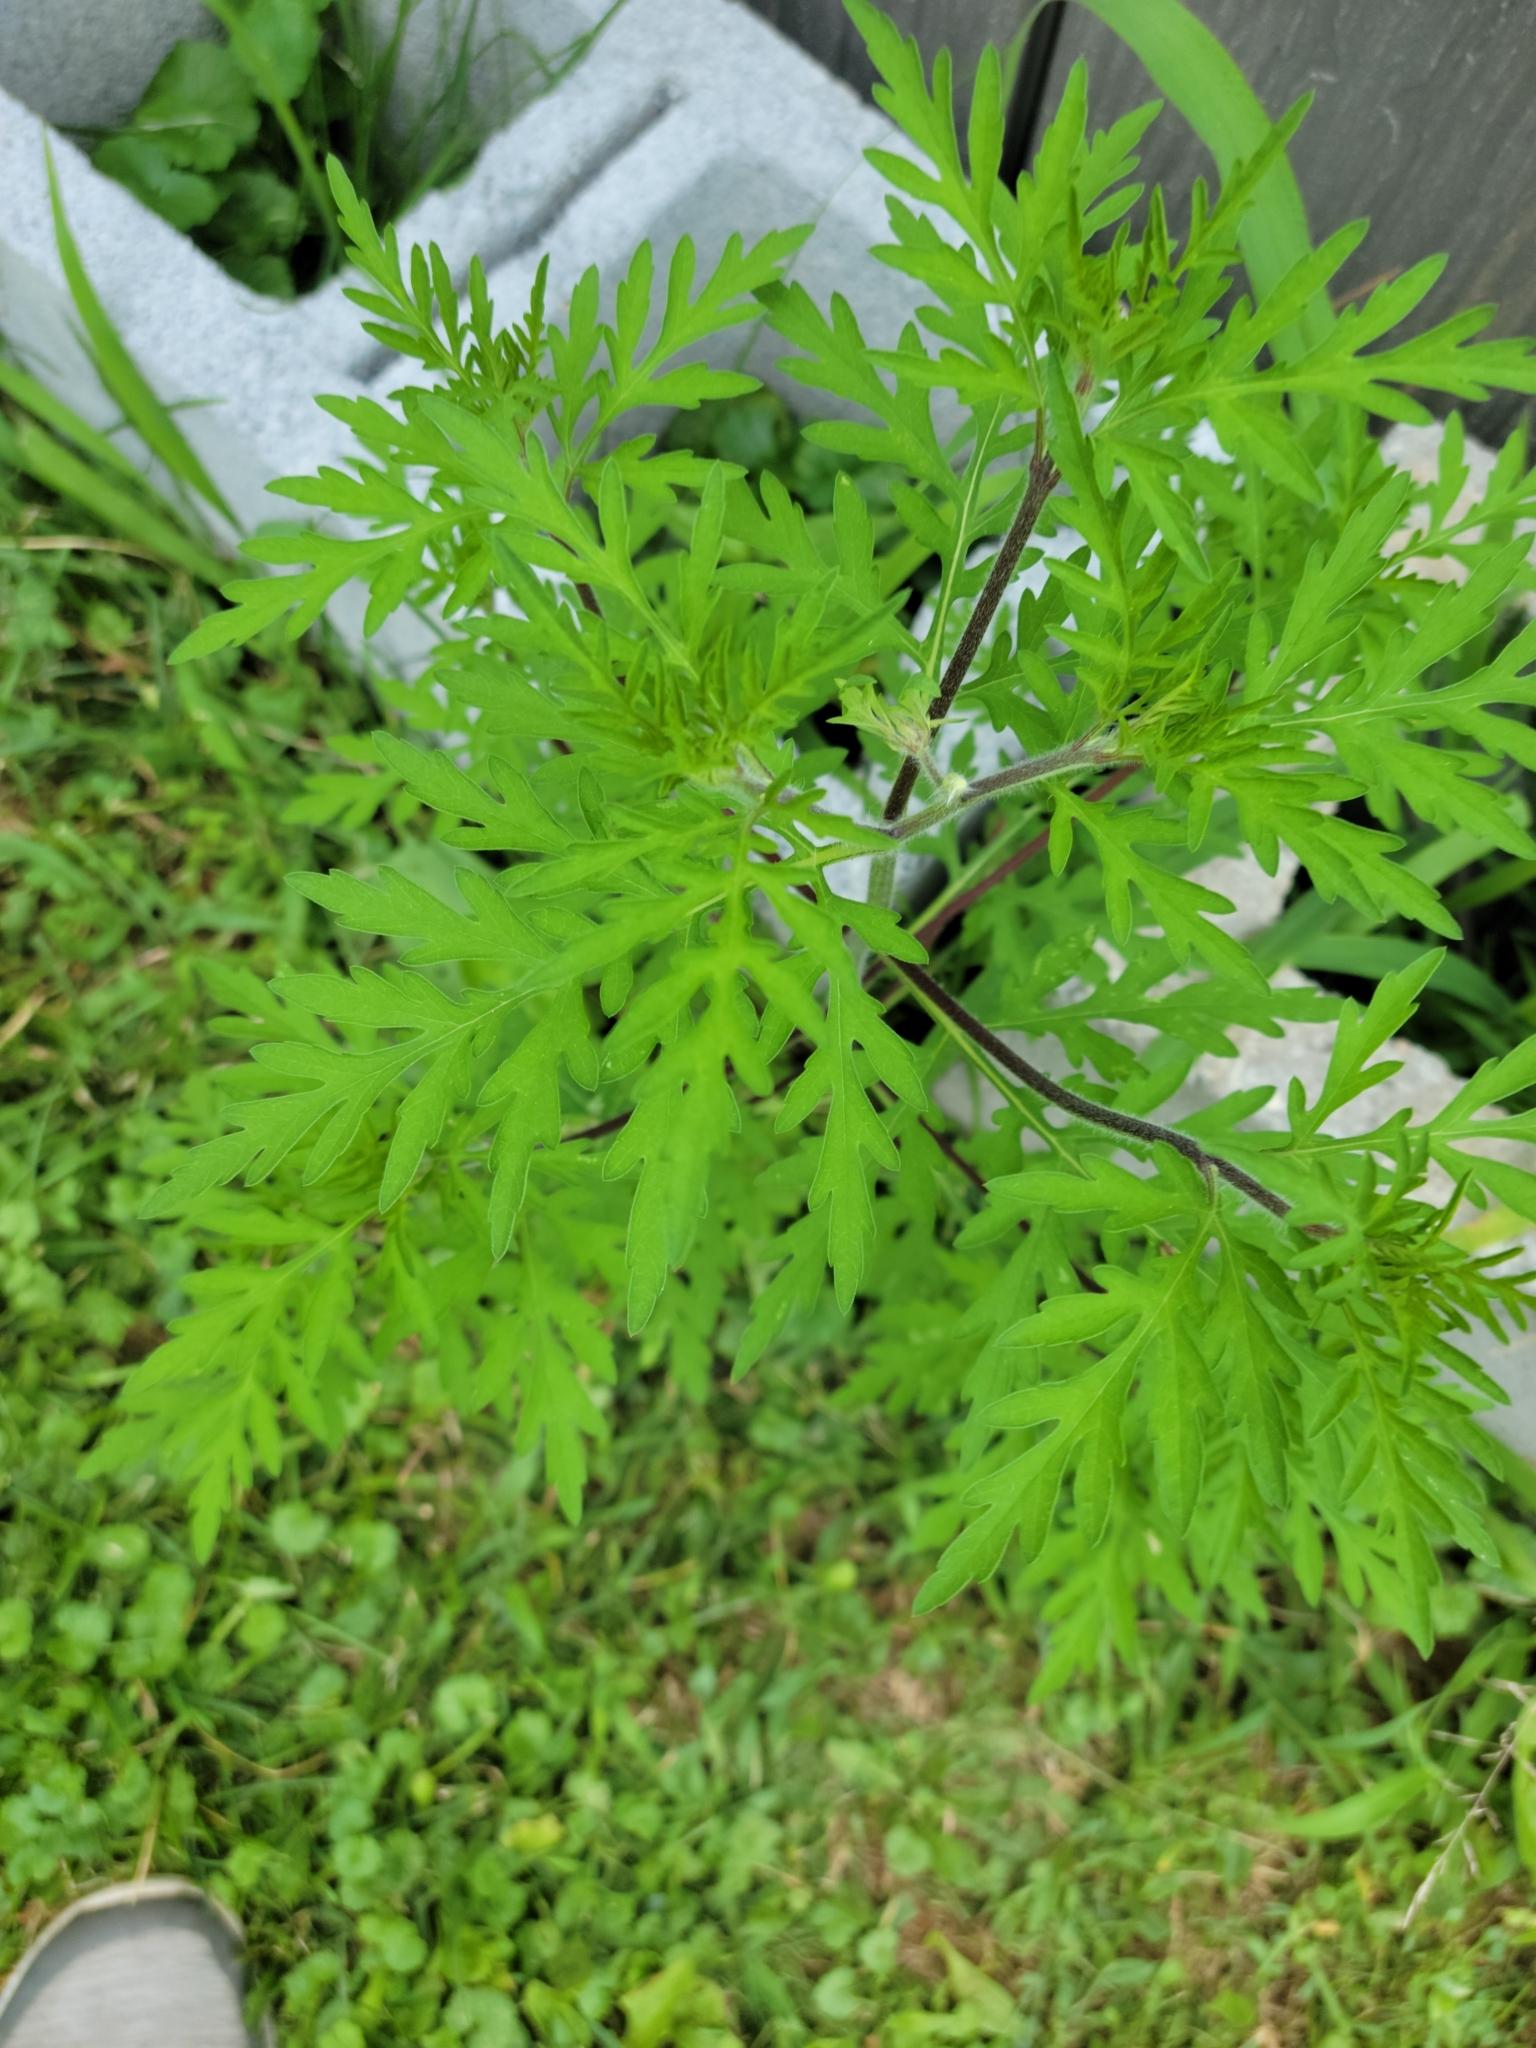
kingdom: Plantae
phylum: Tracheophyta
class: Magnoliopsida
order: Asterales
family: Asteraceae
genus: Ambrosia
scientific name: Ambrosia artemisiifolia
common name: Annual ragweed
